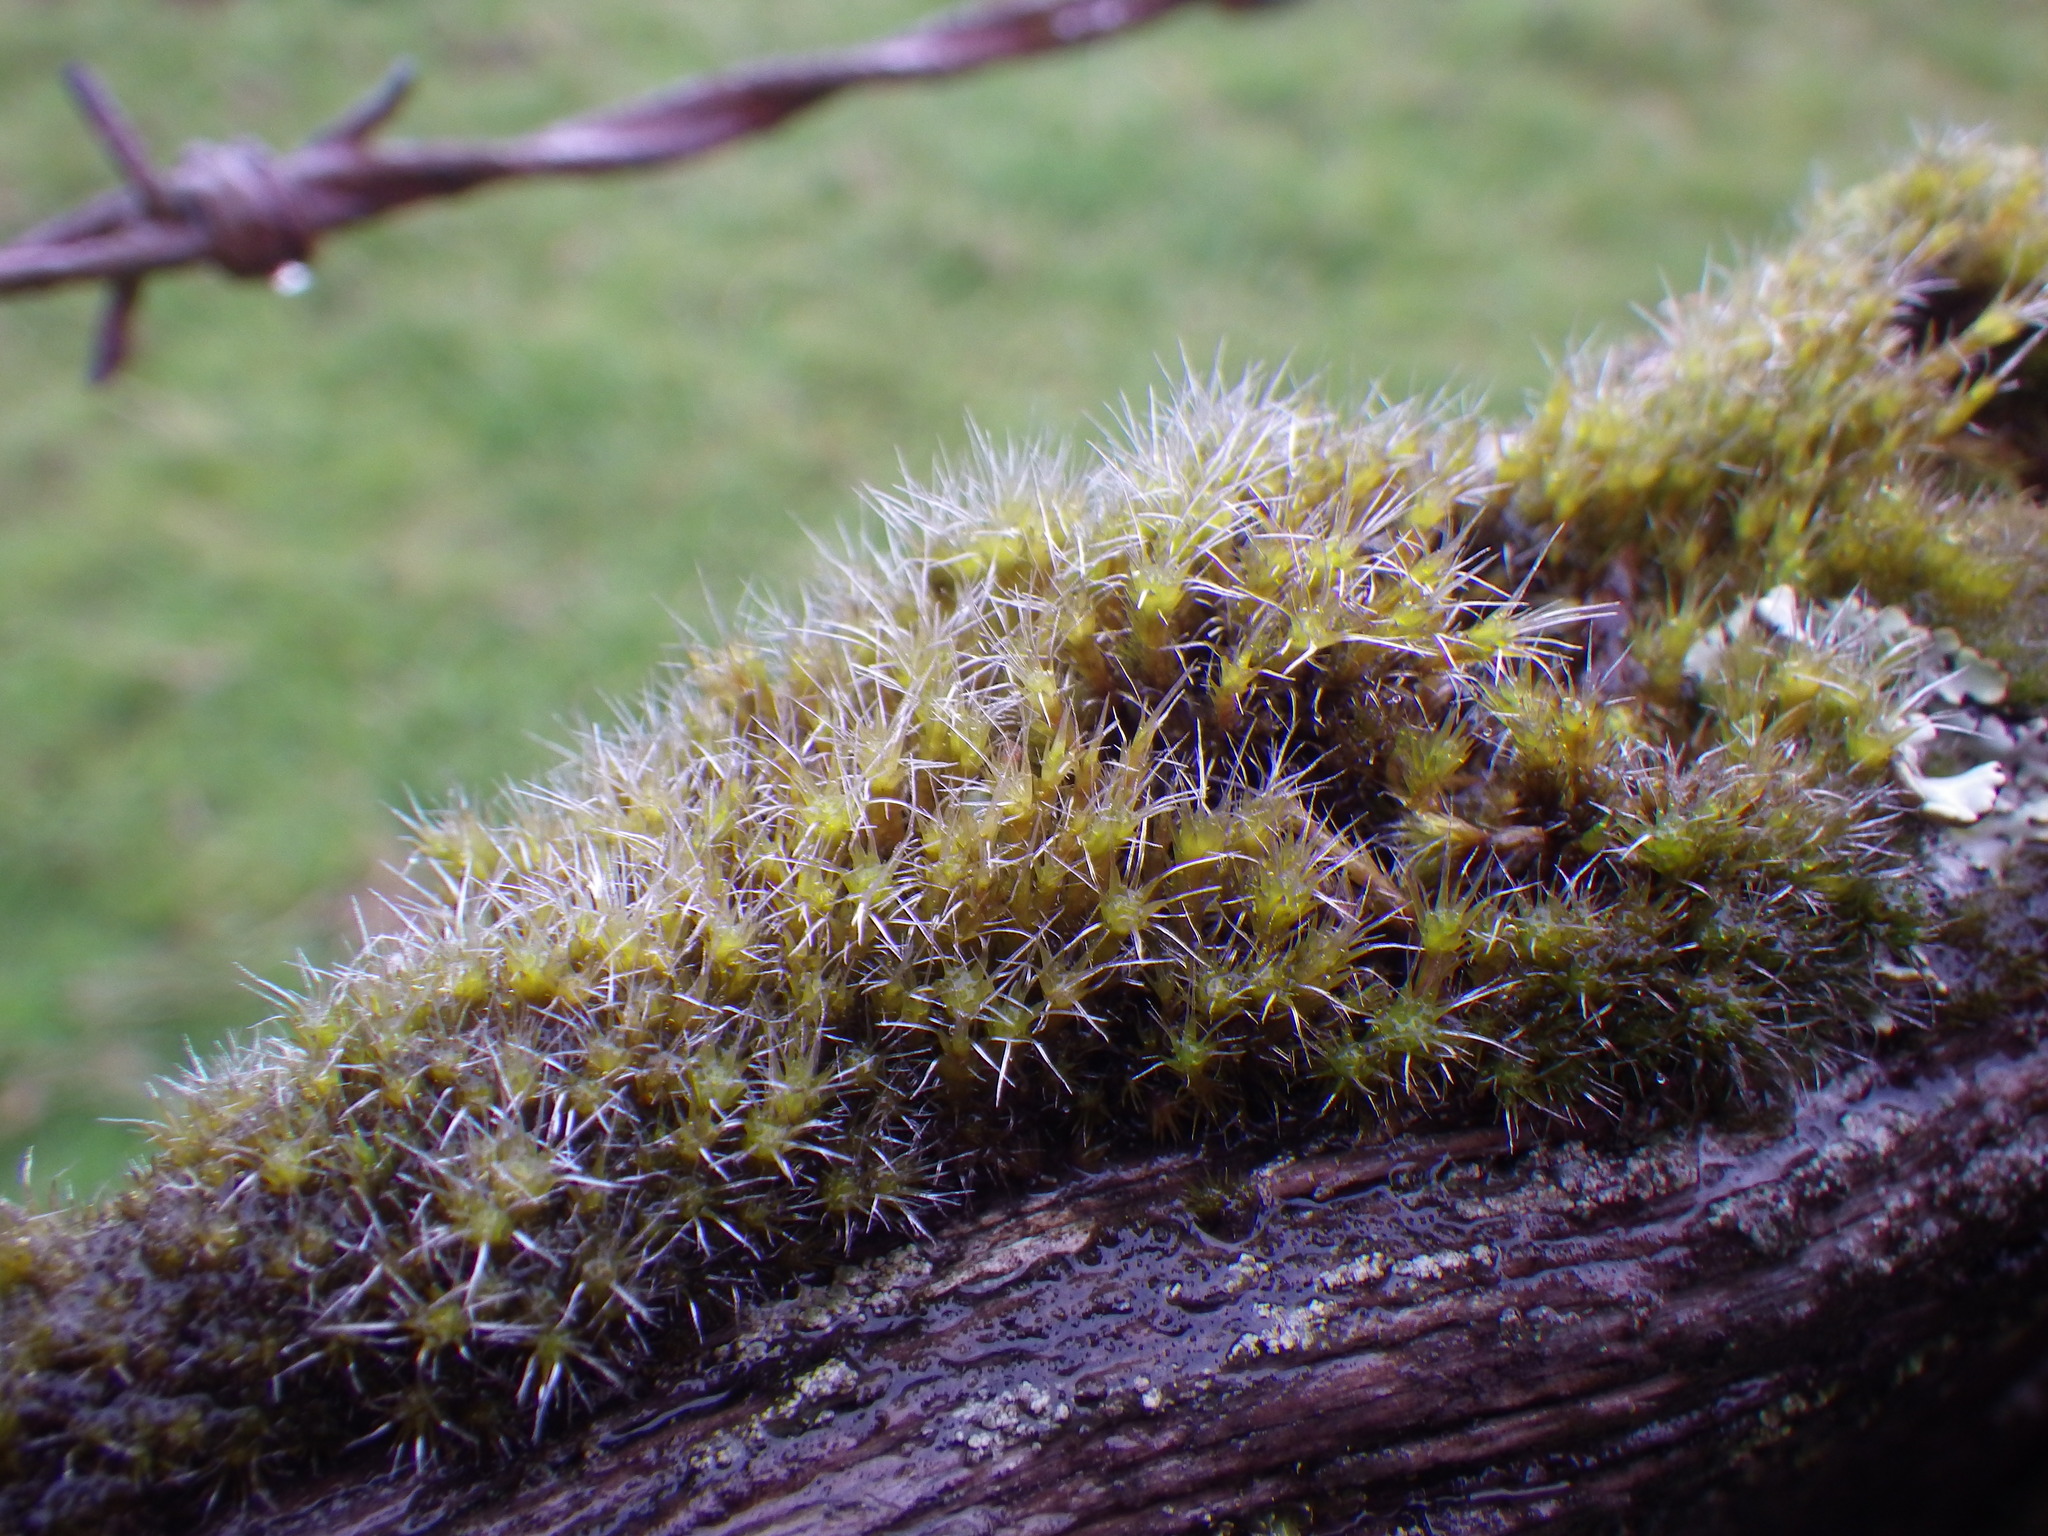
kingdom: Plantae
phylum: Bryophyta
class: Bryopsida
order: Dicranales
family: Leucobryaceae
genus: Campylopus
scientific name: Campylopus introflexus
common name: Heath star moss
